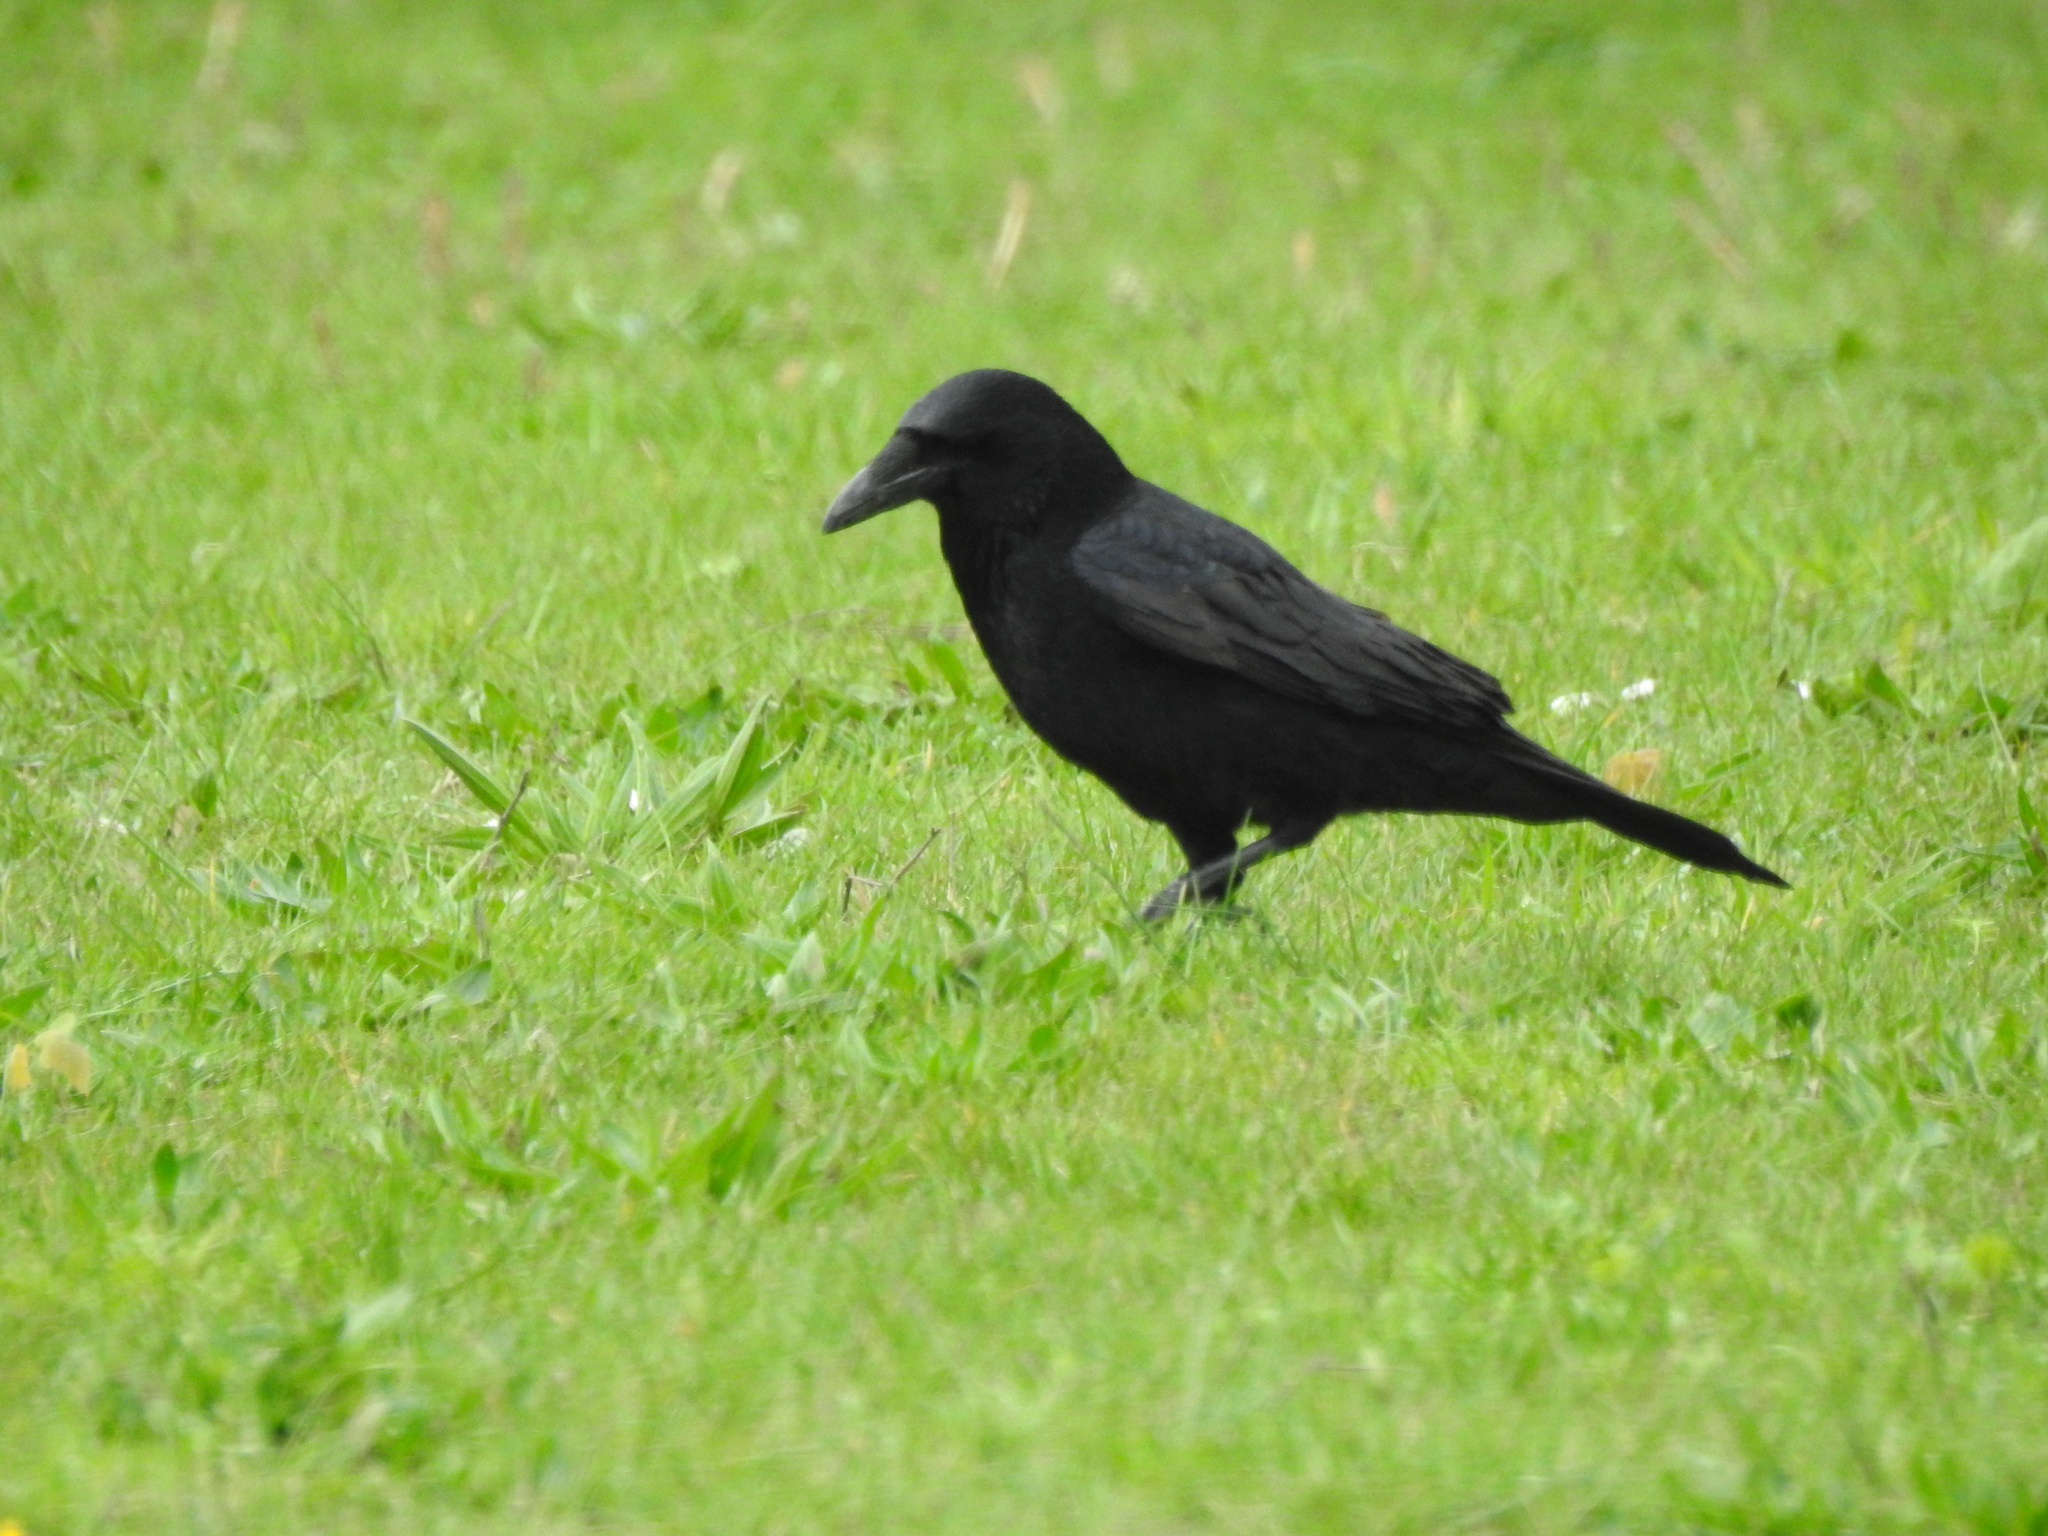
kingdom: Animalia
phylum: Chordata
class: Aves
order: Passeriformes
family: Corvidae
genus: Corvus
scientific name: Corvus corone
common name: Carrion crow
